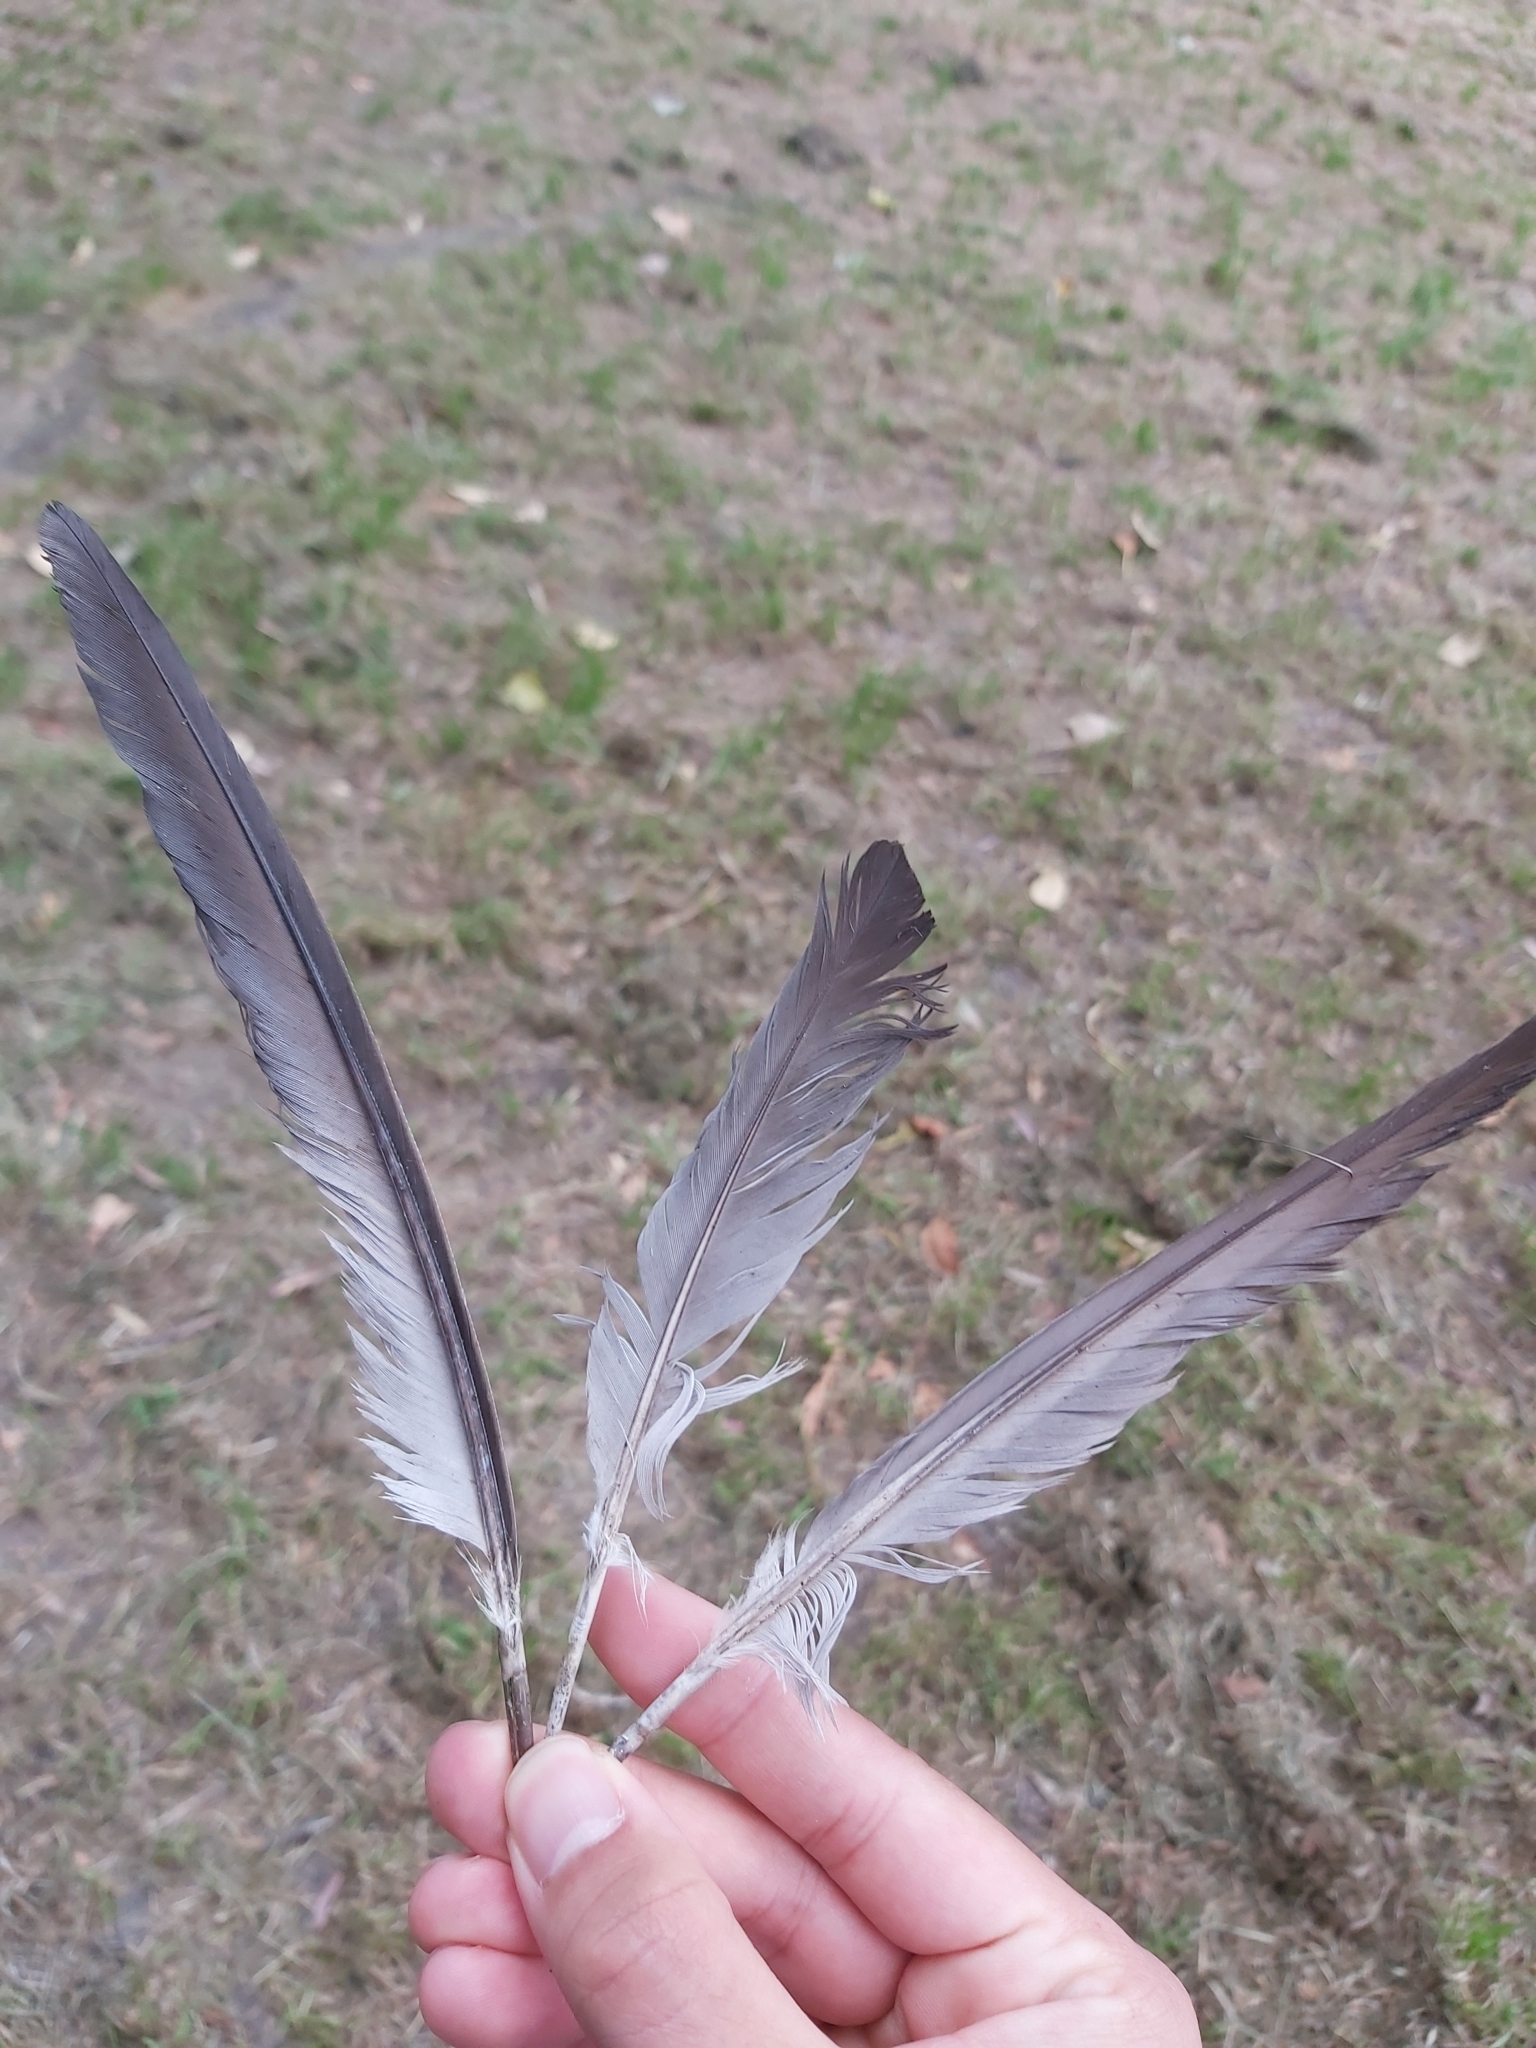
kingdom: Animalia
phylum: Chordata
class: Aves
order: Columbiformes
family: Columbidae
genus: Columba
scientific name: Columba livia
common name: Rock pigeon
